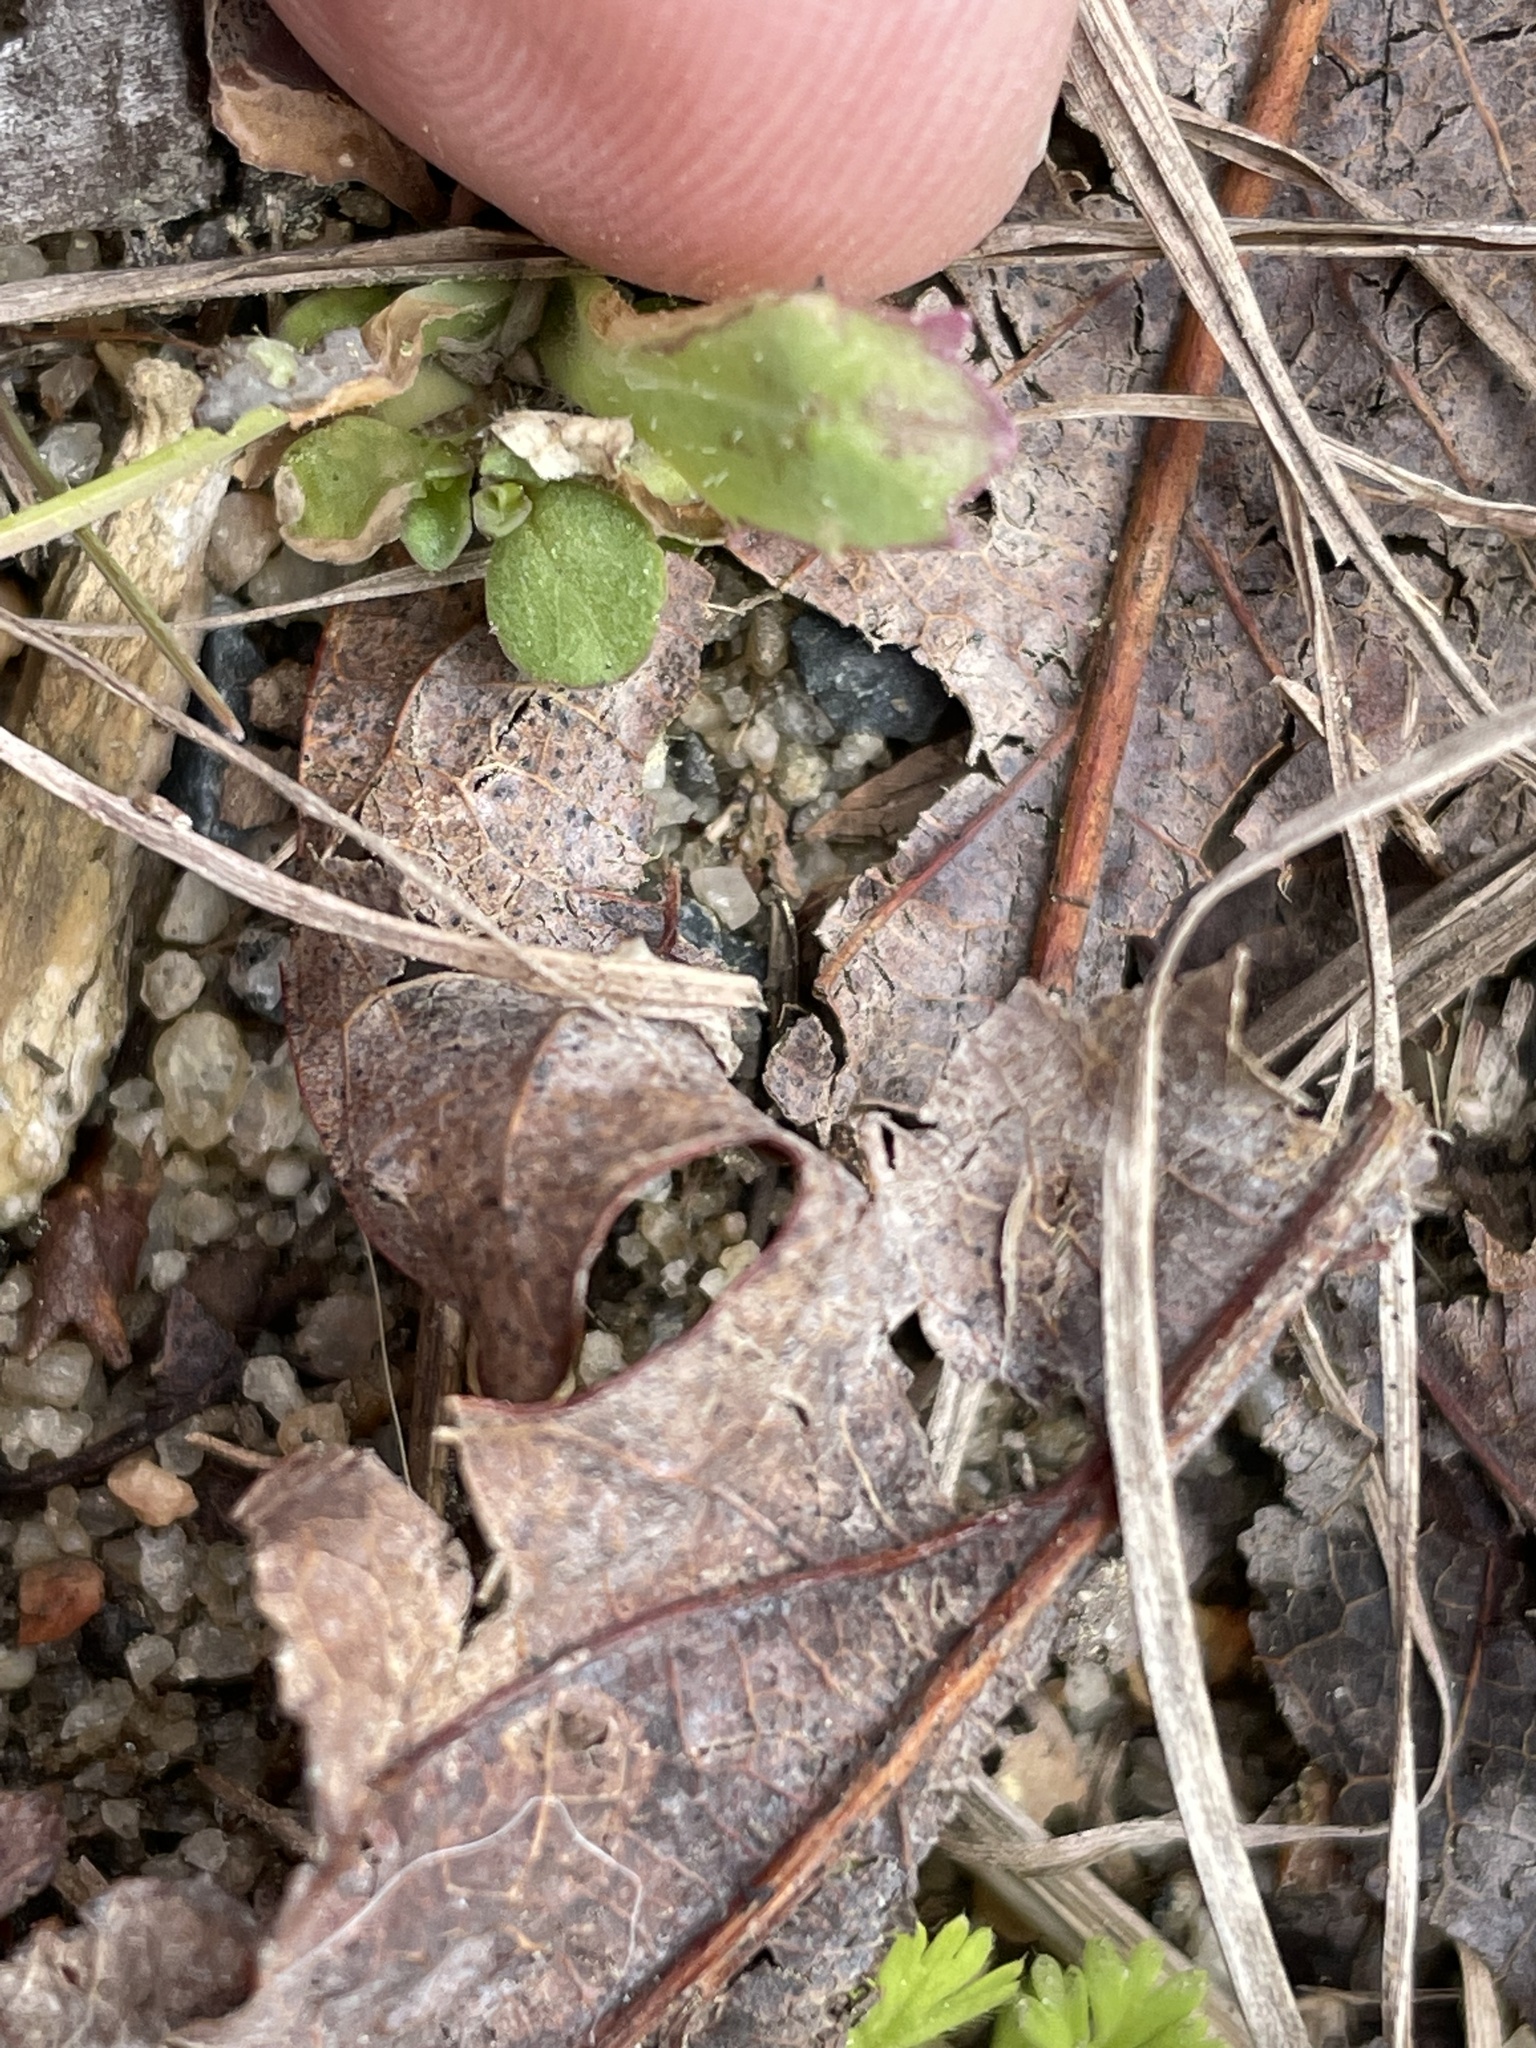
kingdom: Plantae
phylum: Tracheophyta
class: Magnoliopsida
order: Asterales
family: Asteraceae
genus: Krigia
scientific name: Krigia virginica
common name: Virginia dwarf-dandelion
